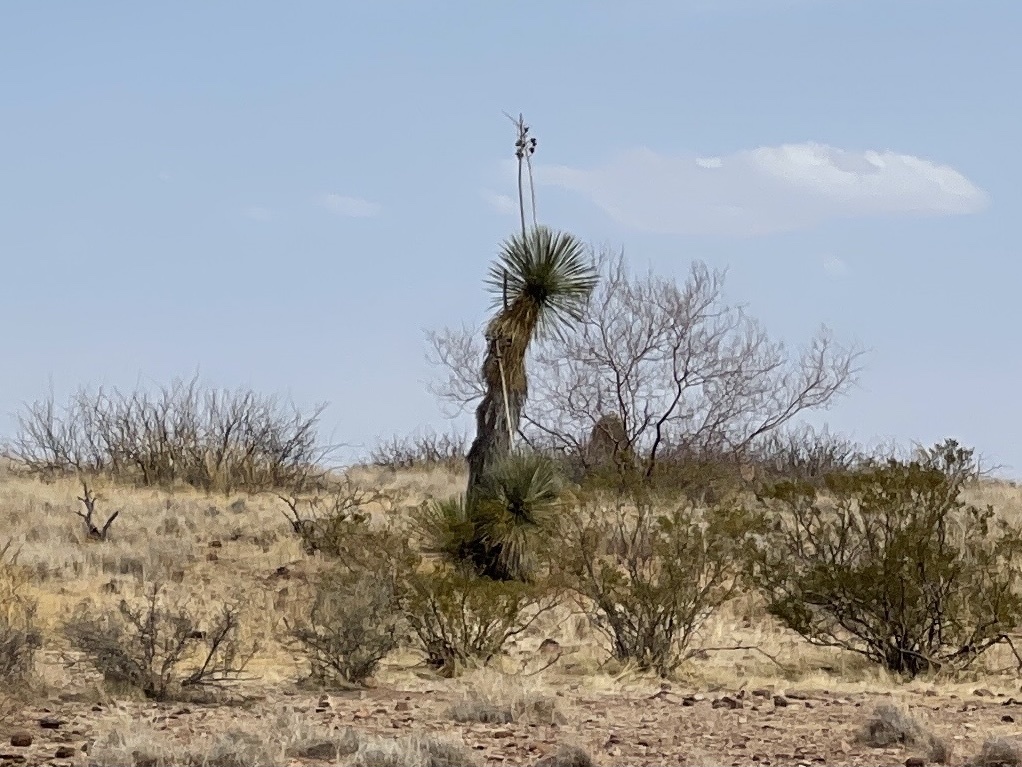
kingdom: Plantae
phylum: Tracheophyta
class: Liliopsida
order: Asparagales
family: Asparagaceae
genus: Yucca
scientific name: Yucca elata
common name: Palmella
